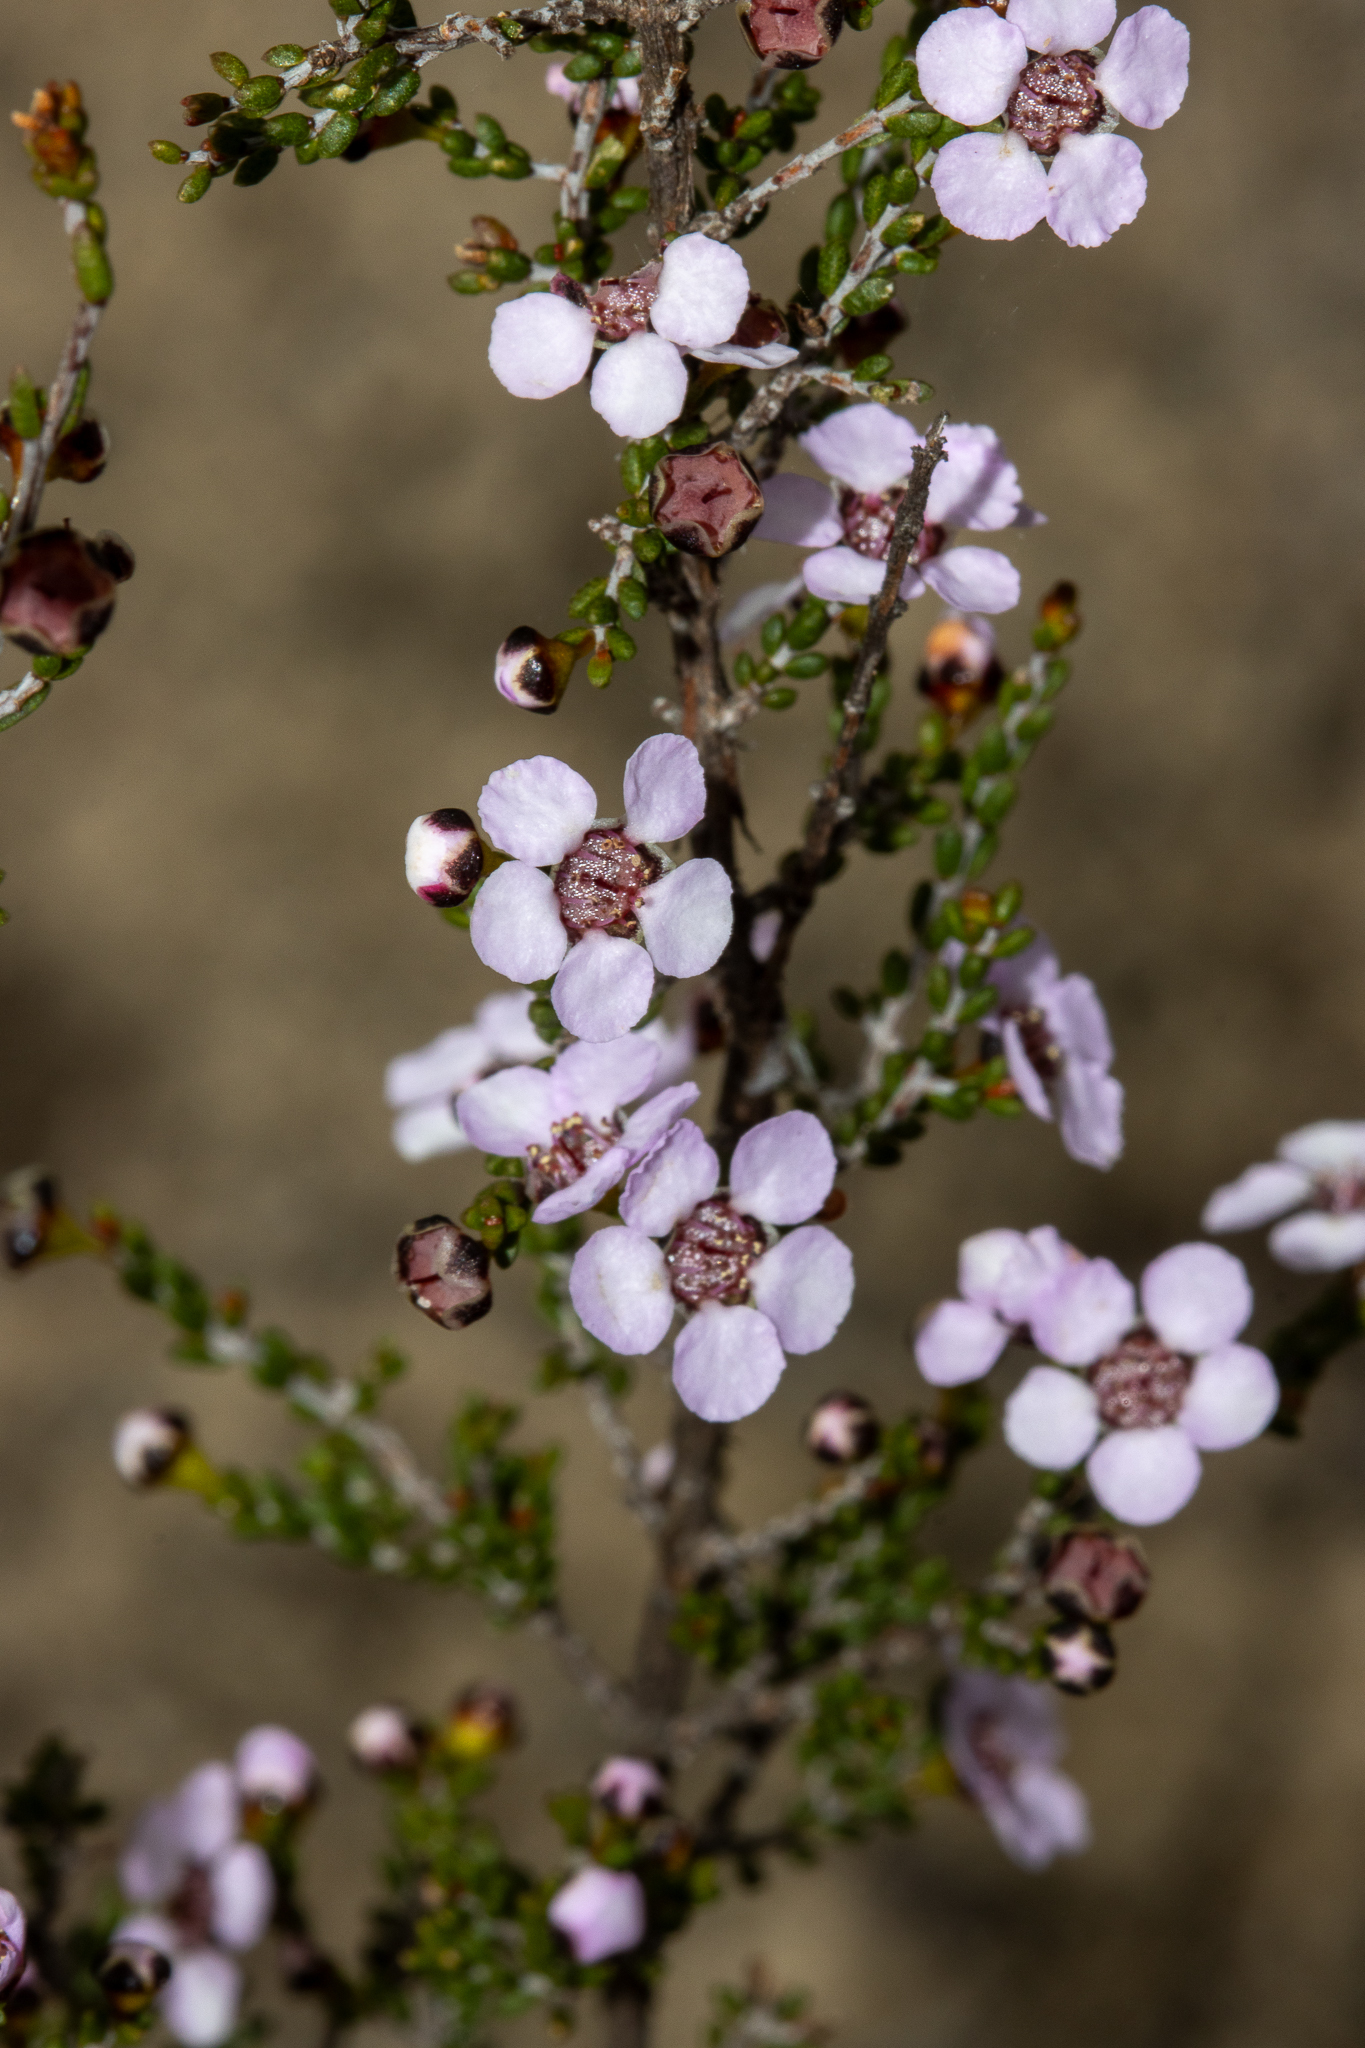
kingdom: Plantae
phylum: Tracheophyta
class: Magnoliopsida
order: Myrtales
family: Myrtaceae
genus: Rinzia
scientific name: Rinzia orientalis
